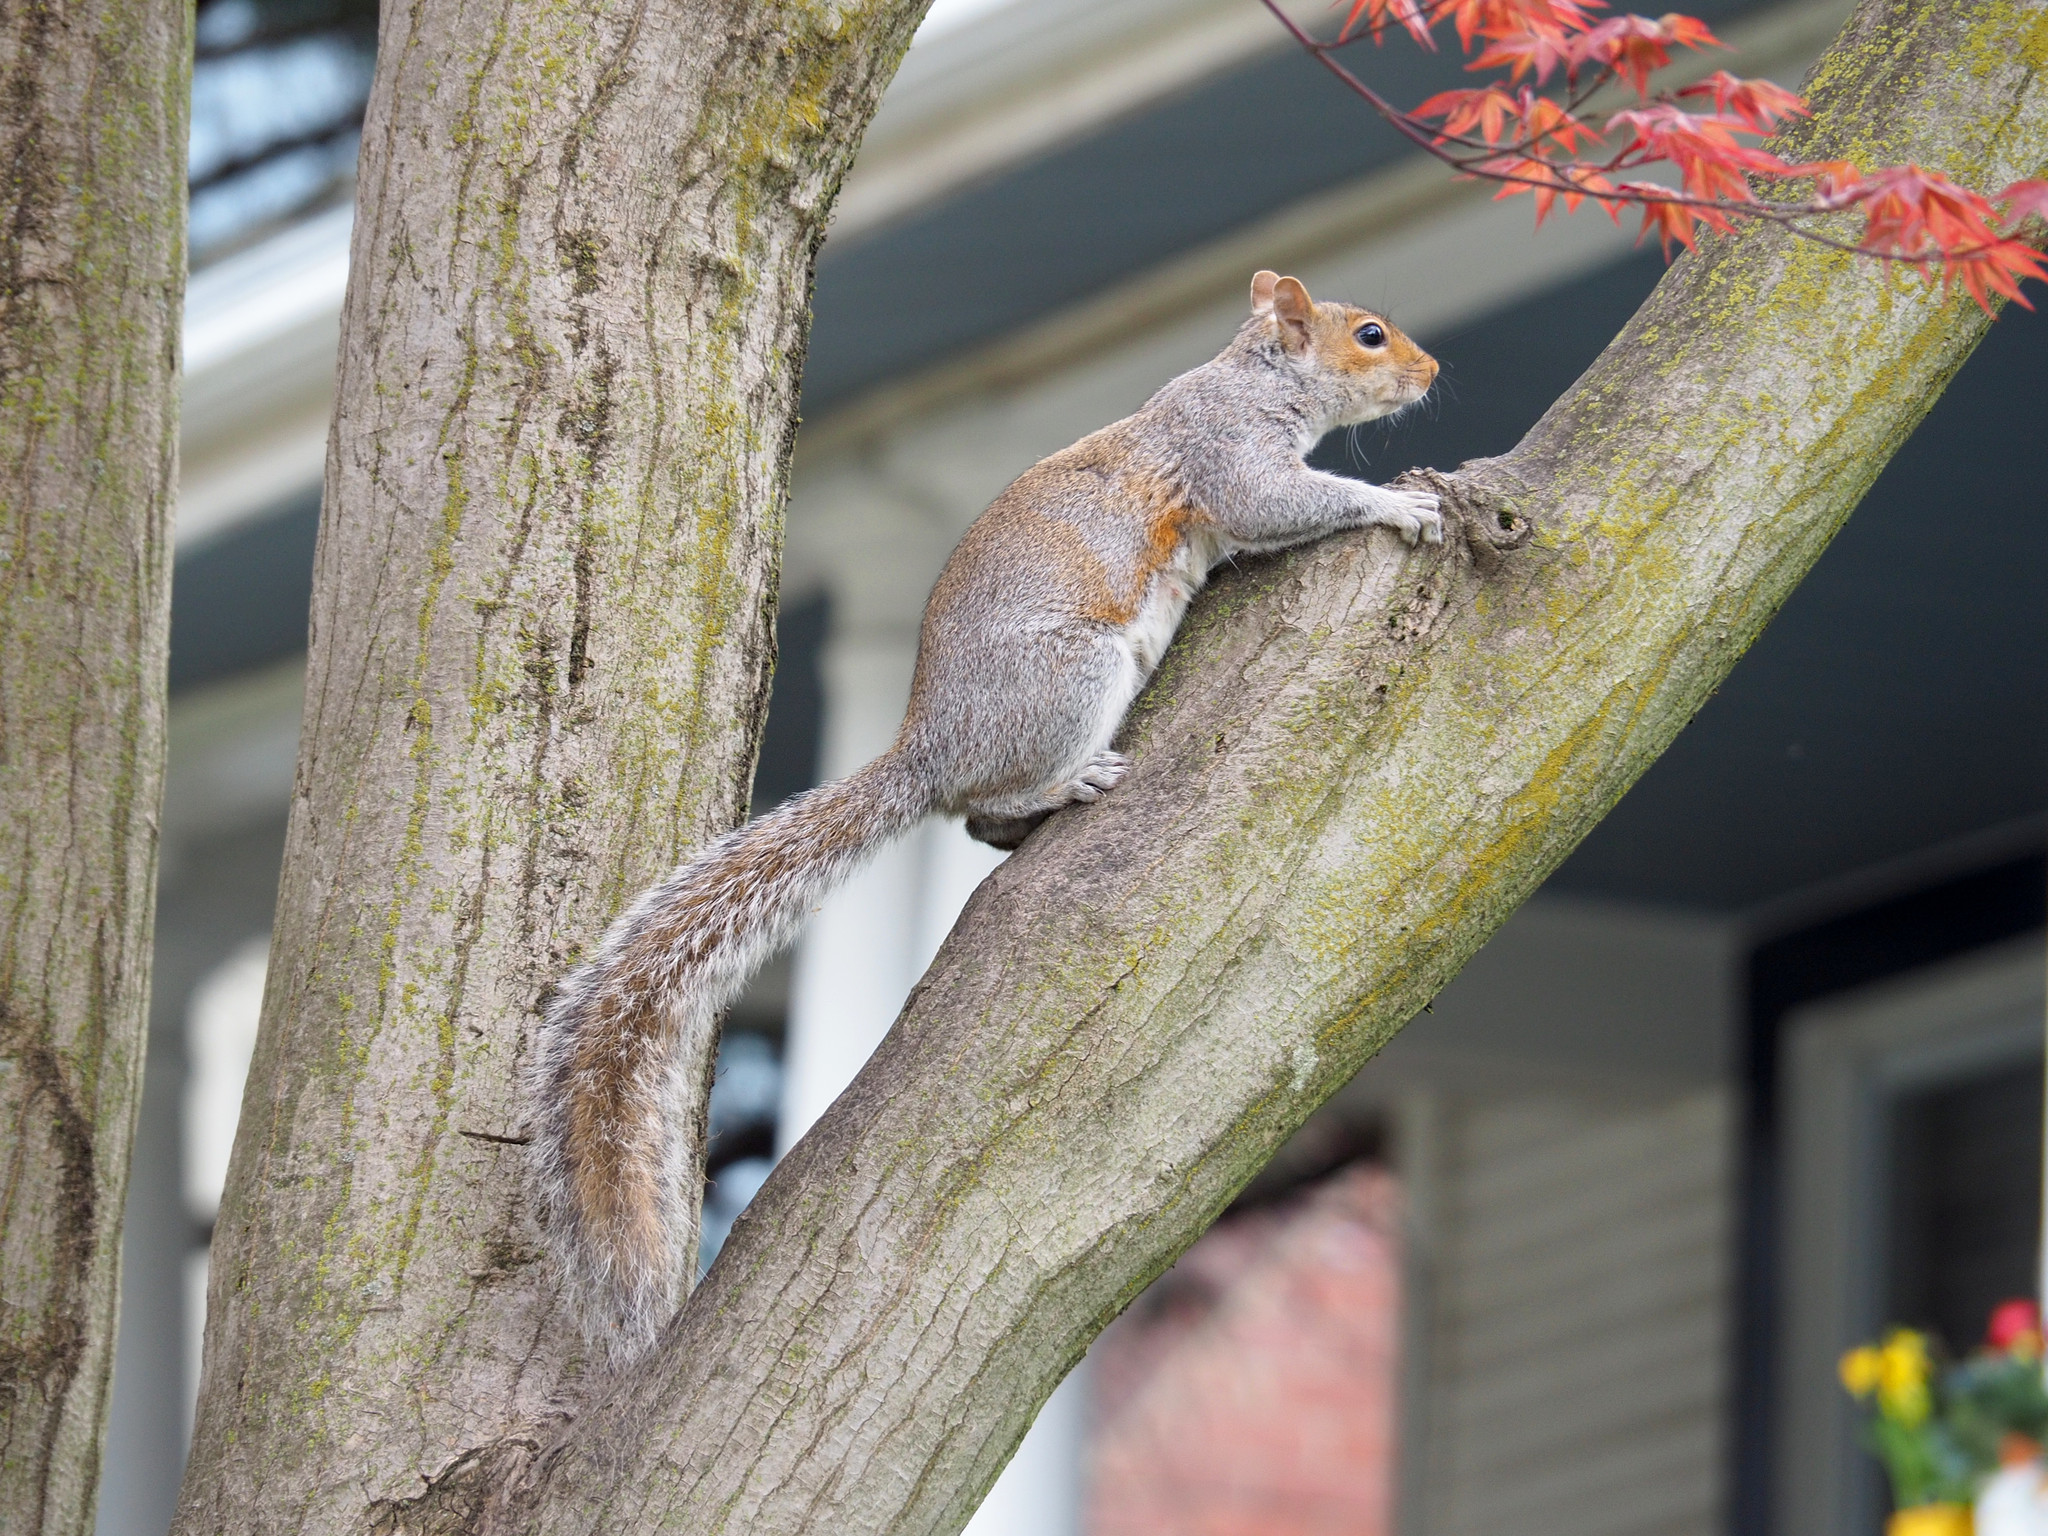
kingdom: Animalia
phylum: Chordata
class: Mammalia
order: Rodentia
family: Sciuridae
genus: Sciurus
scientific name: Sciurus carolinensis
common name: Eastern gray squirrel
